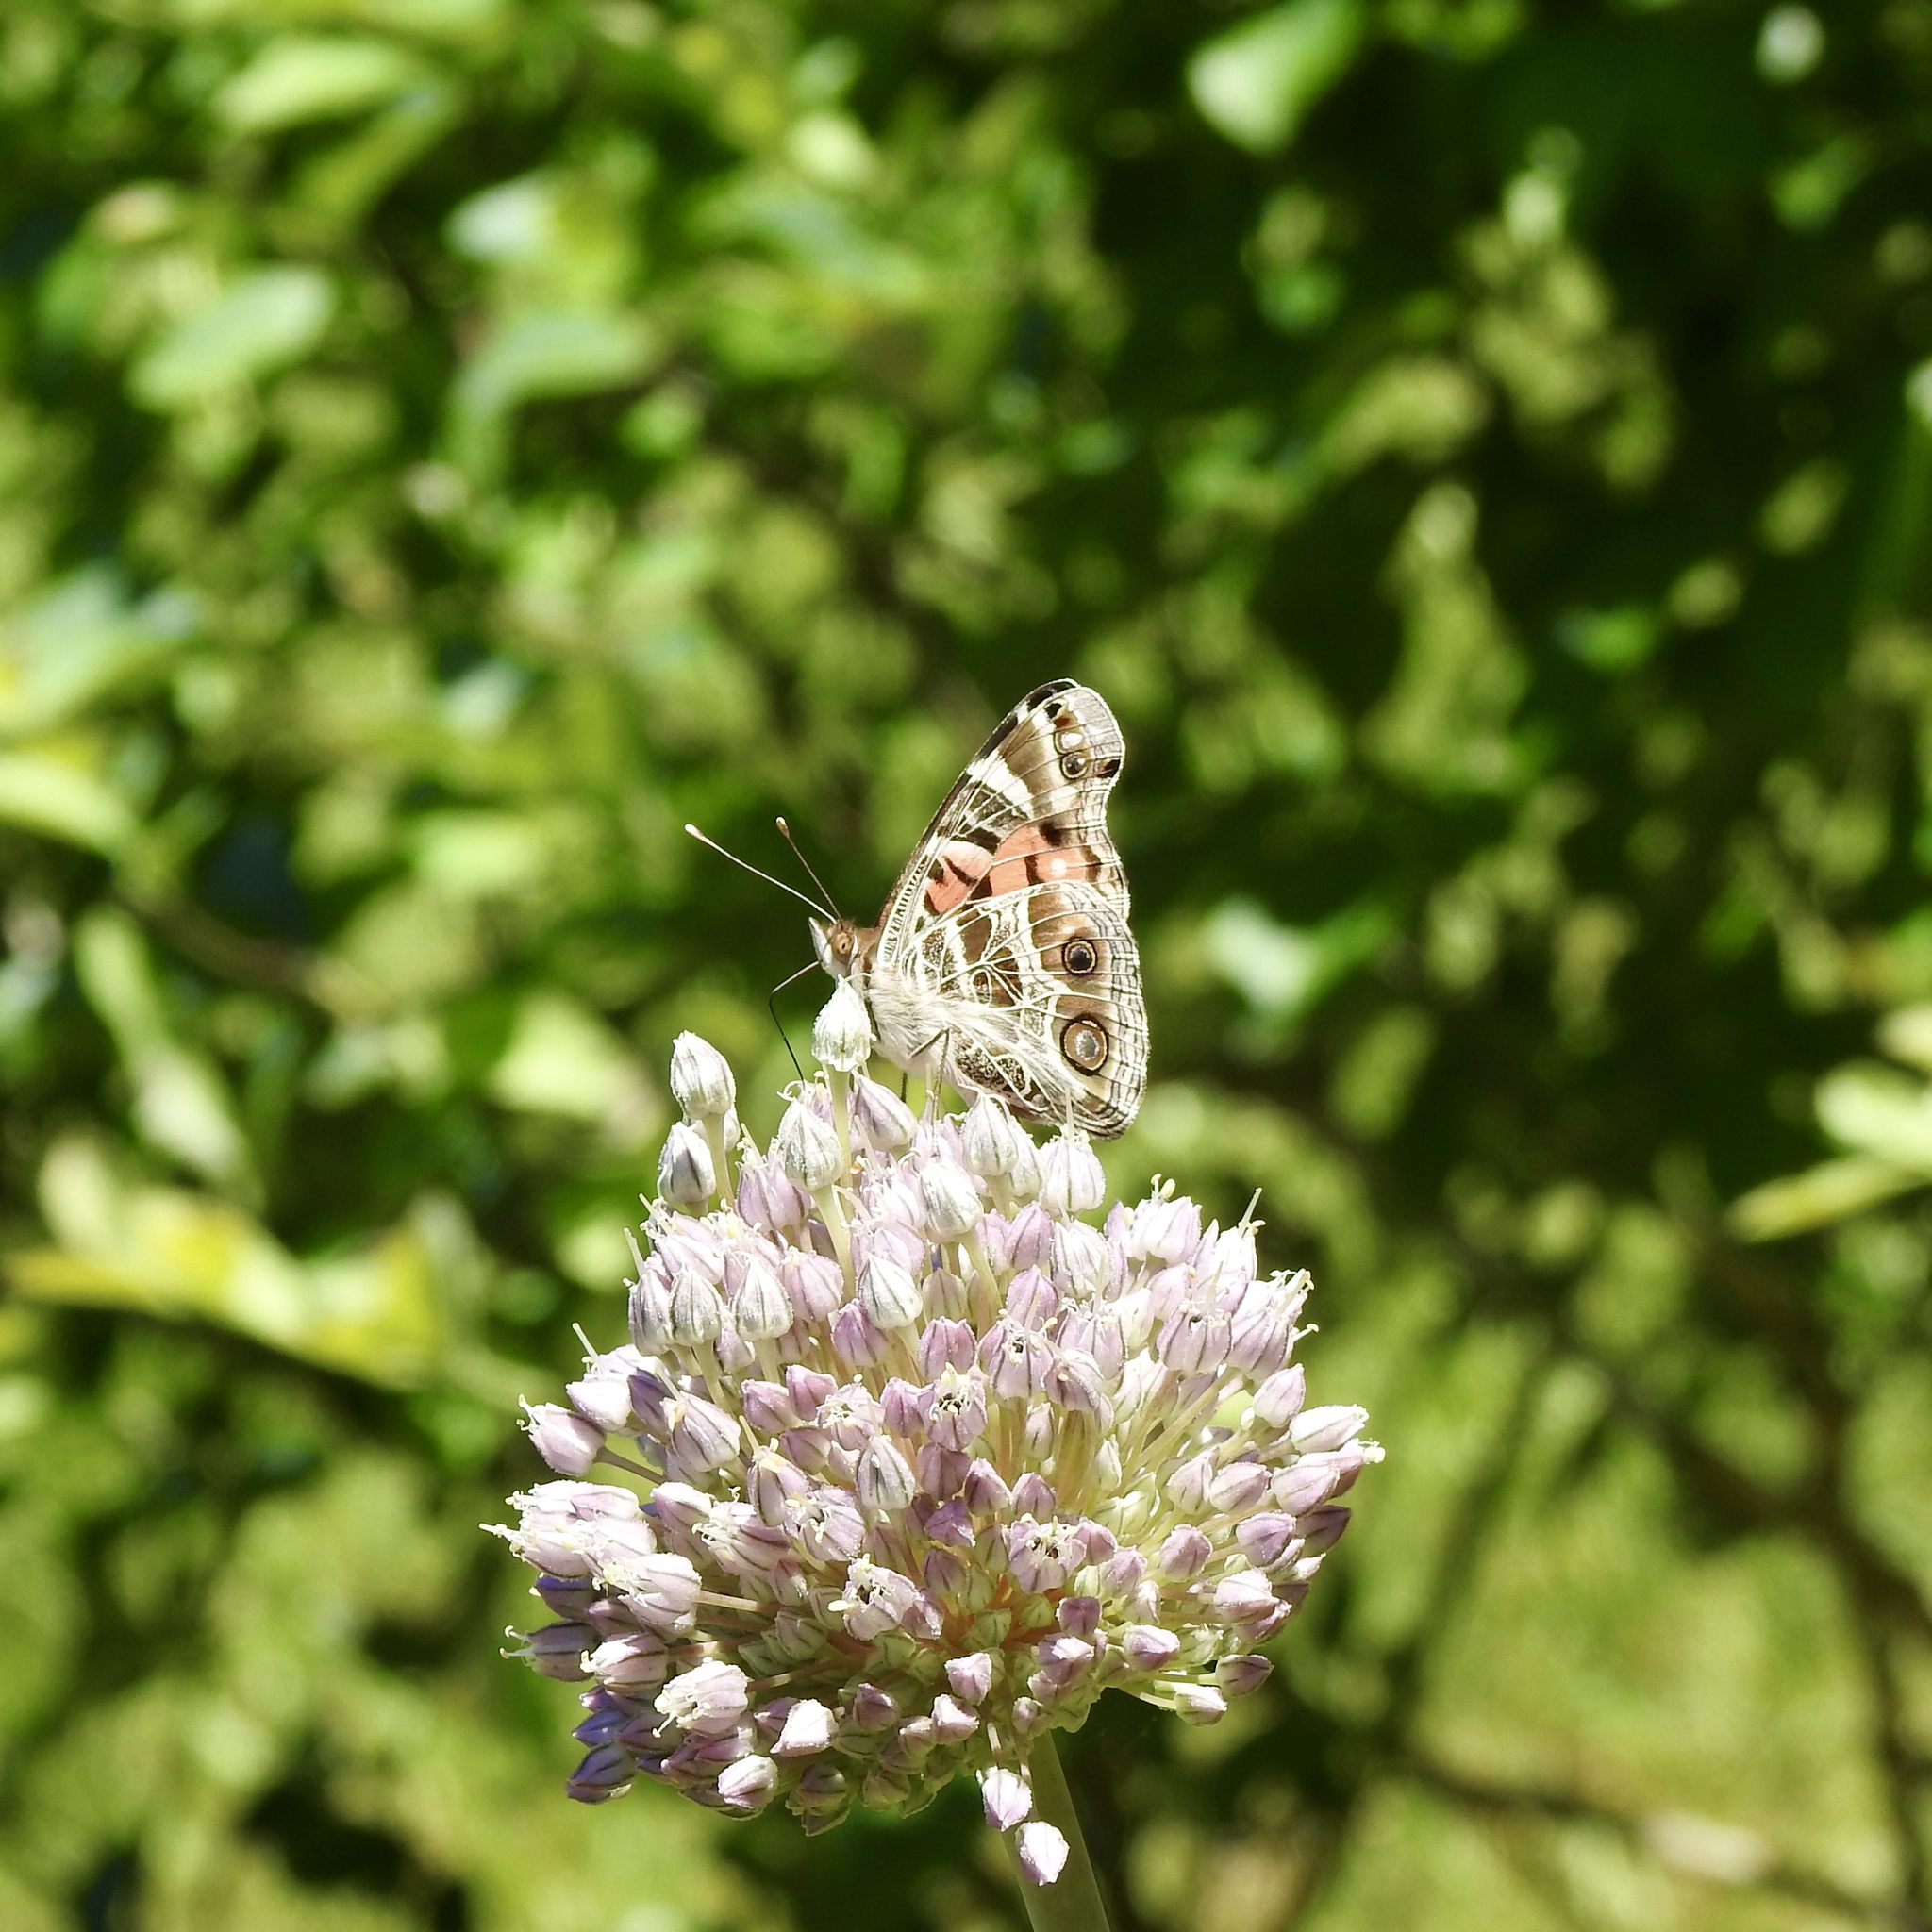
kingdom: Animalia
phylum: Arthropoda
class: Insecta
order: Lepidoptera
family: Nymphalidae
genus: Vanessa
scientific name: Vanessa virginiensis
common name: American lady
